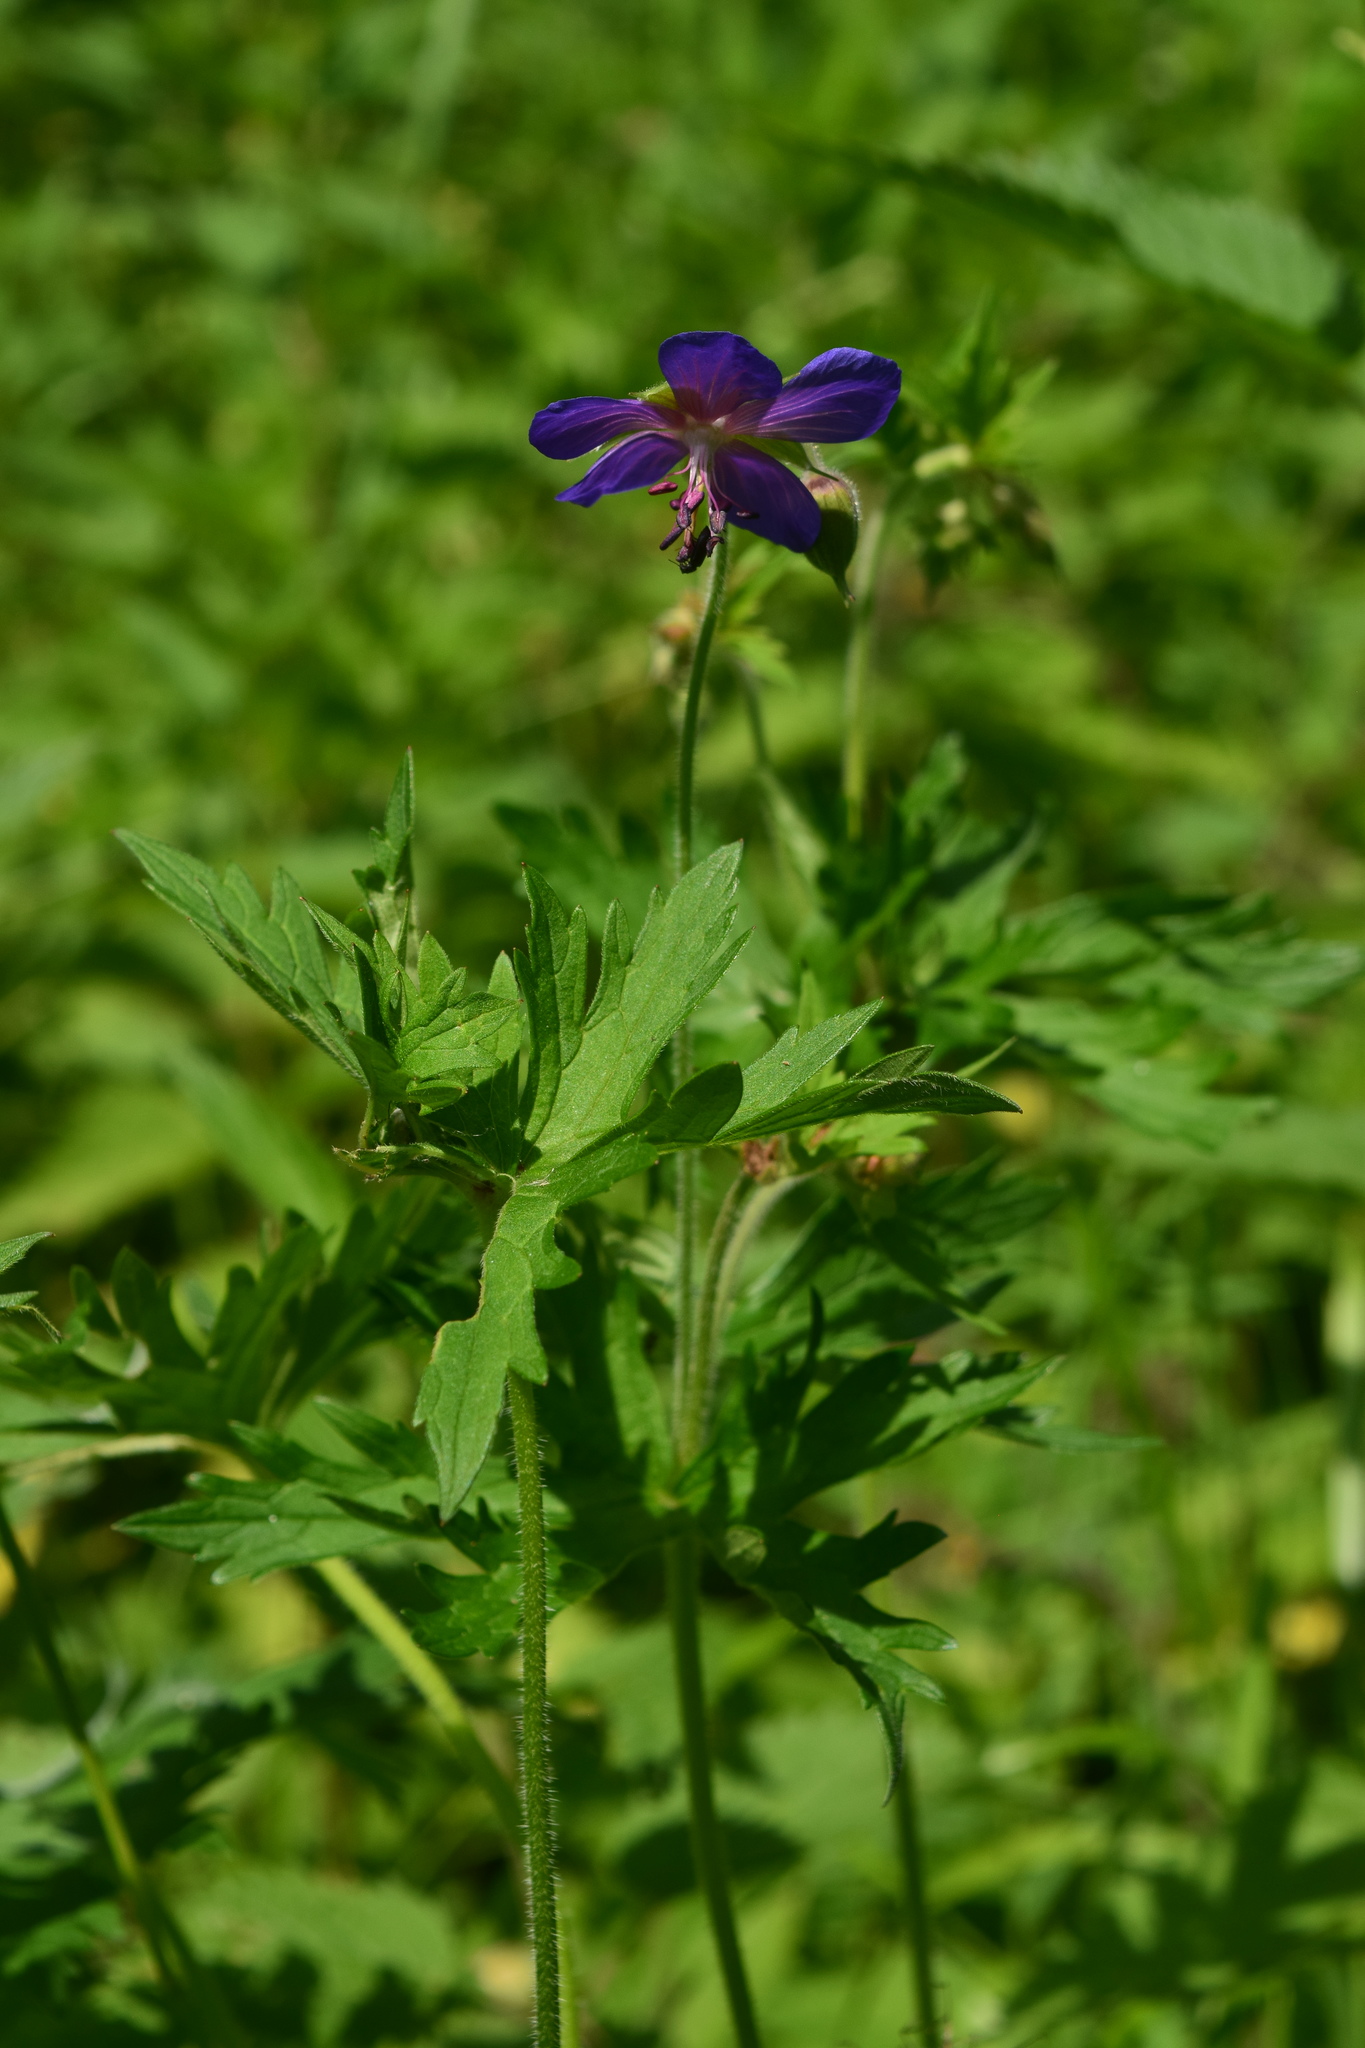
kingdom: Plantae
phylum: Tracheophyta
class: Magnoliopsida
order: Geraniales
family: Geraniaceae
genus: Geranium
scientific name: Geranium pratense
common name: Meadow crane's-bill
